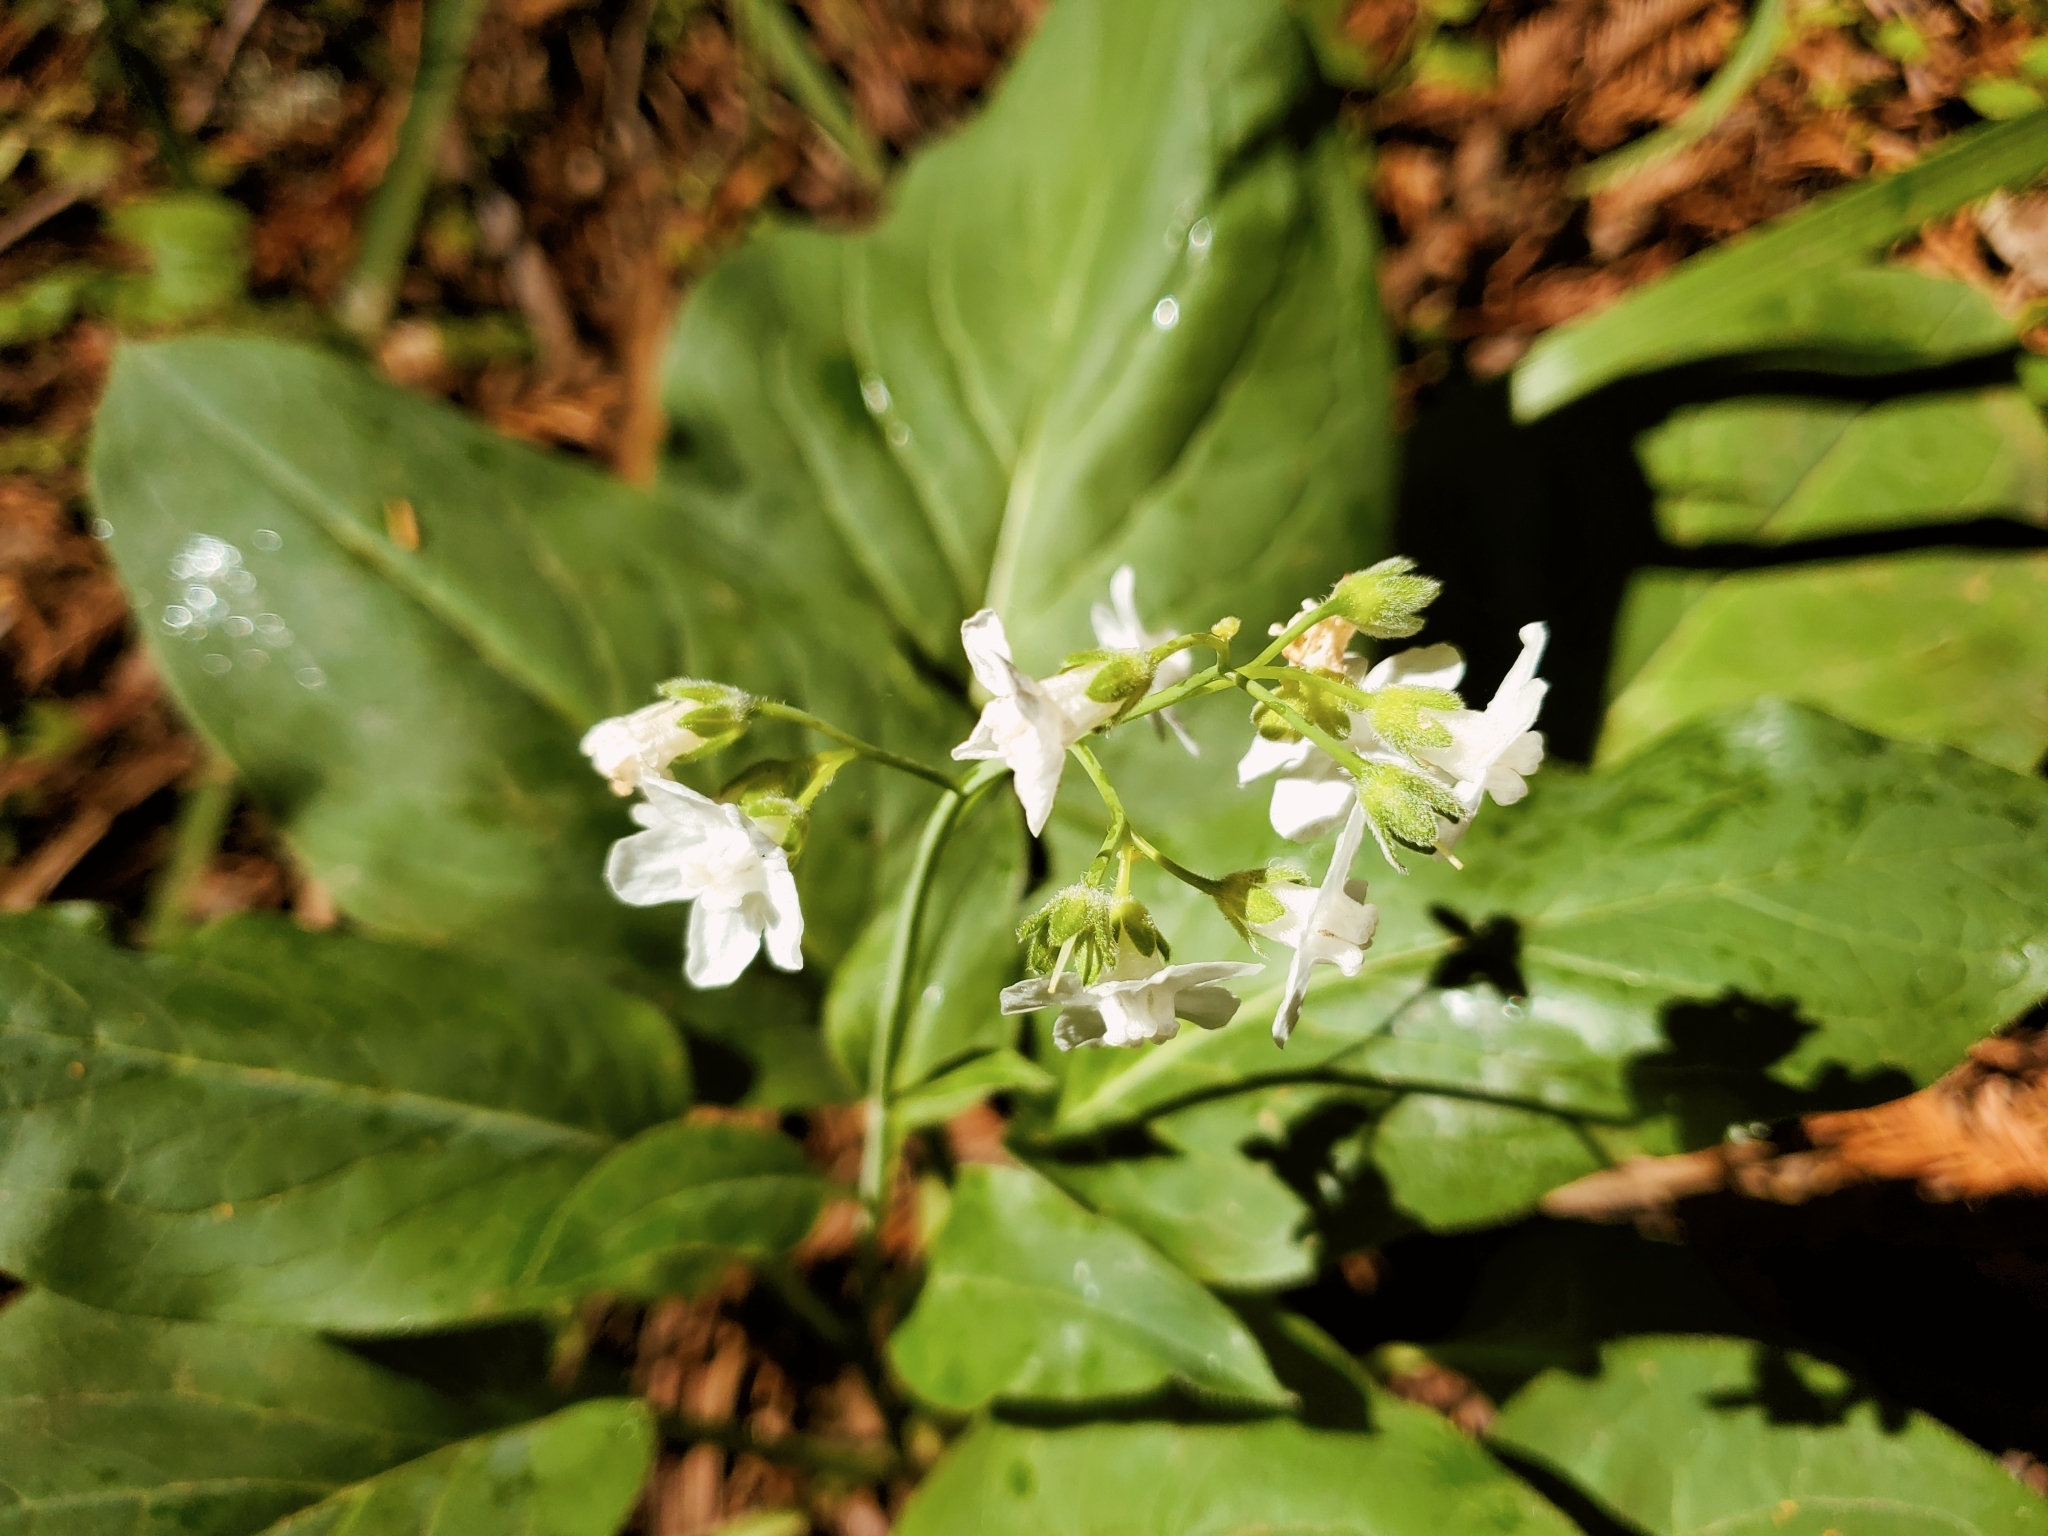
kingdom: Plantae
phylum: Tracheophyta
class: Magnoliopsida
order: Boraginales
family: Boraginaceae
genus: Adelinia
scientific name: Adelinia grande
